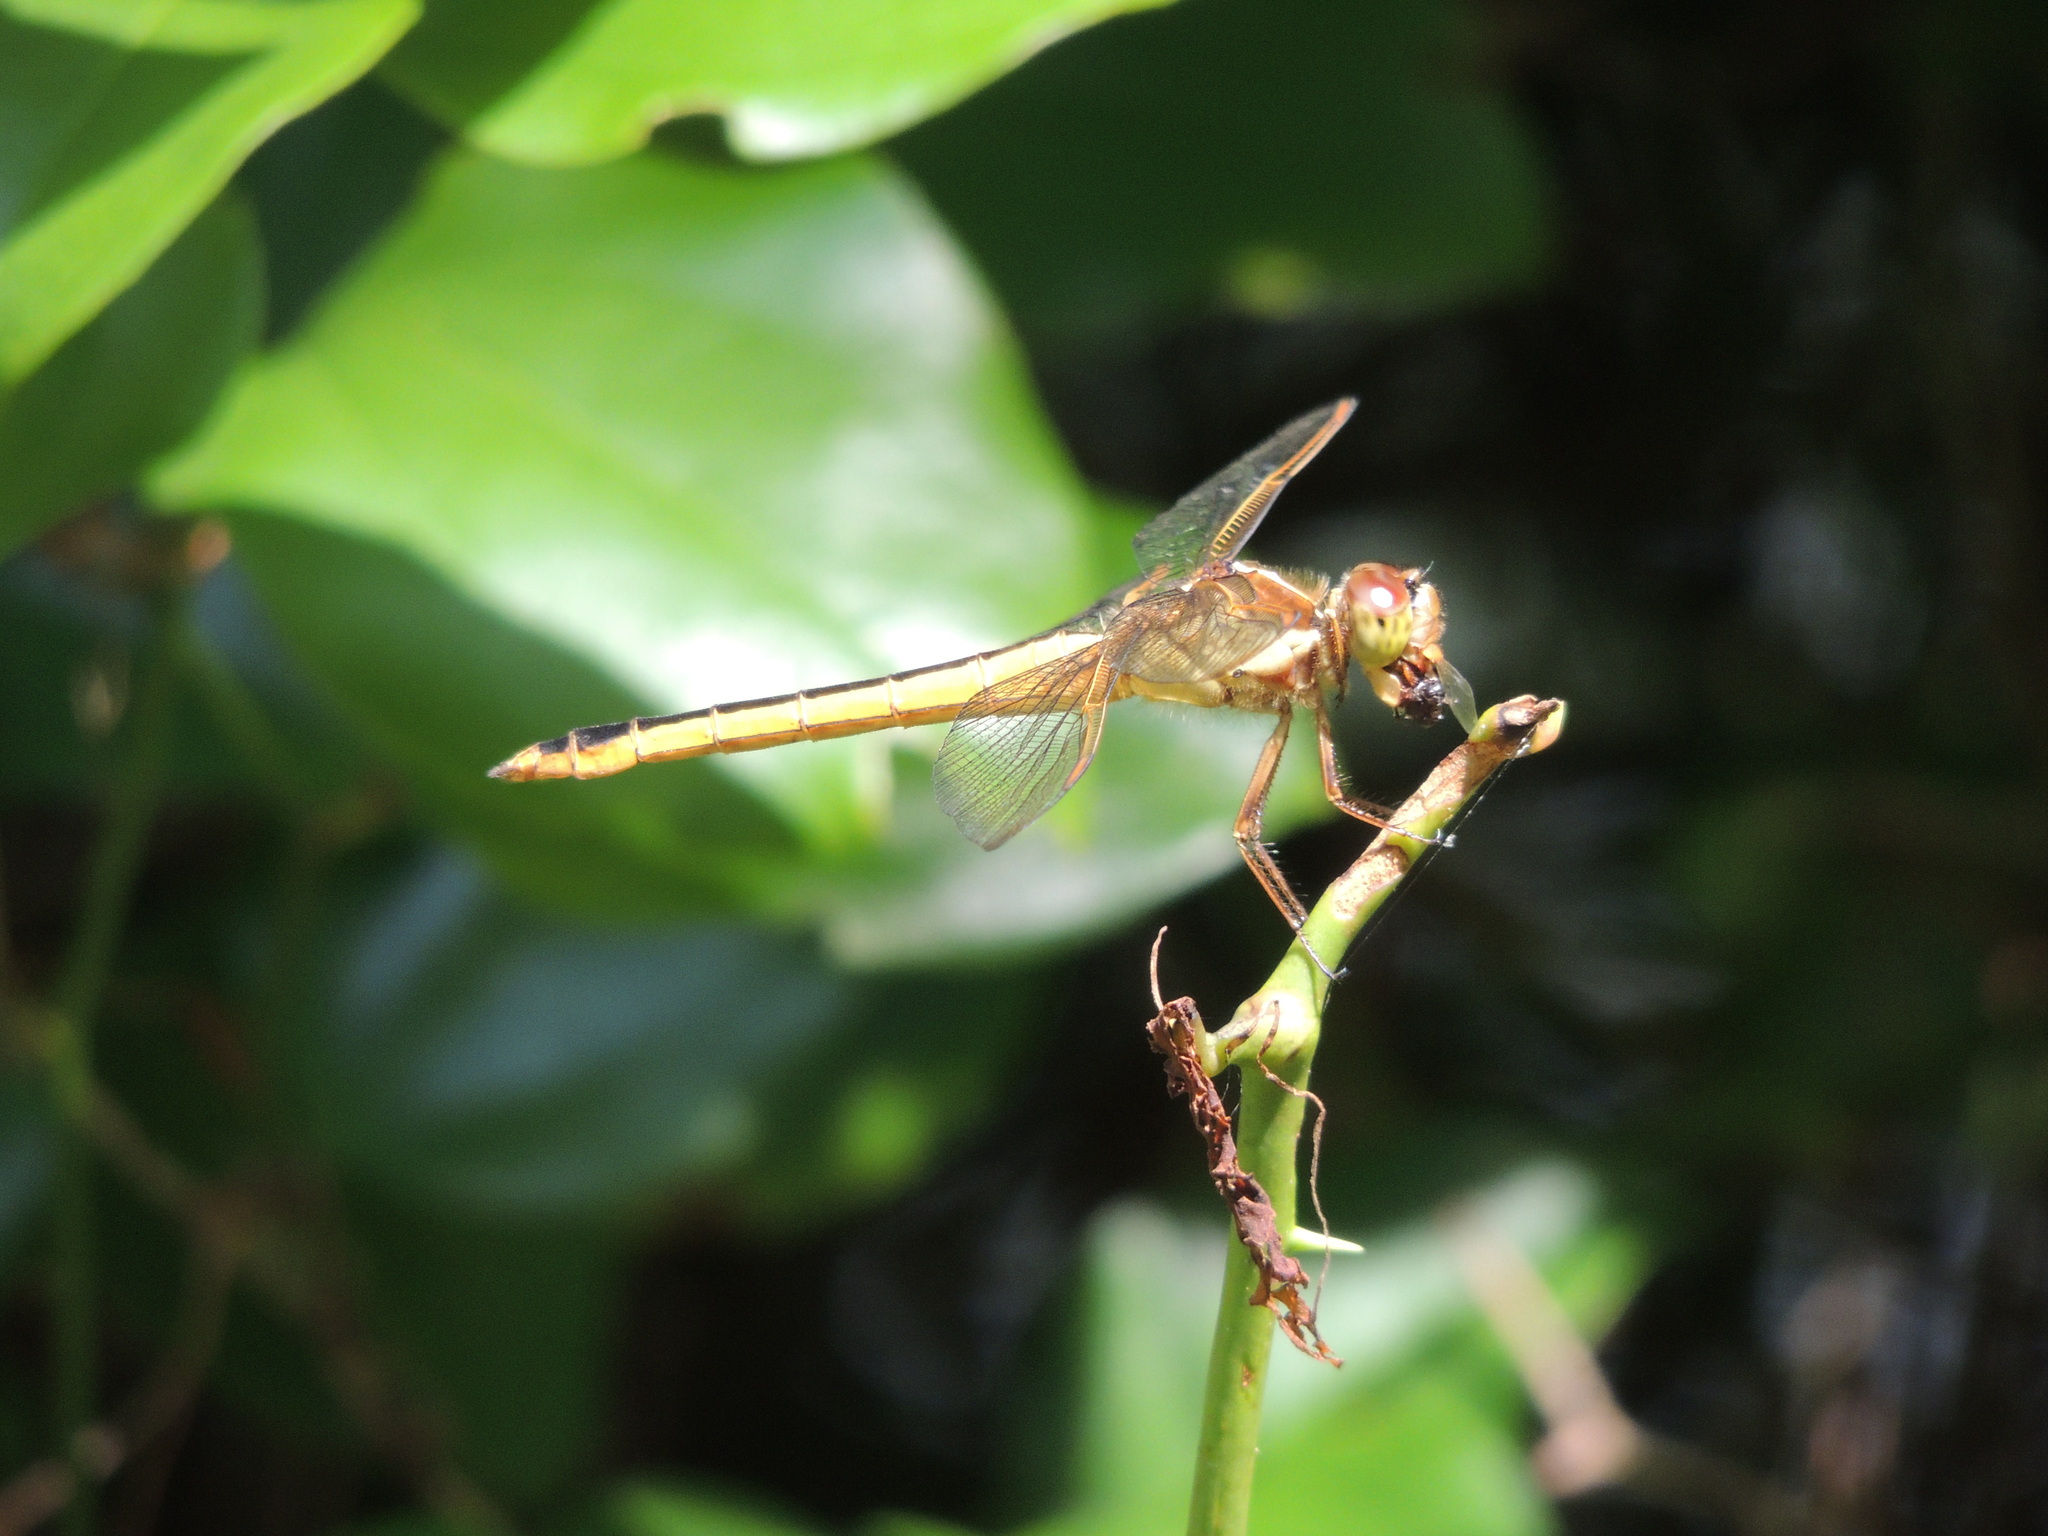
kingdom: Animalia
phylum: Arthropoda
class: Insecta
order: Odonata
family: Libellulidae
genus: Libellula
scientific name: Libellula needhami
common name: Needham's skimmer
